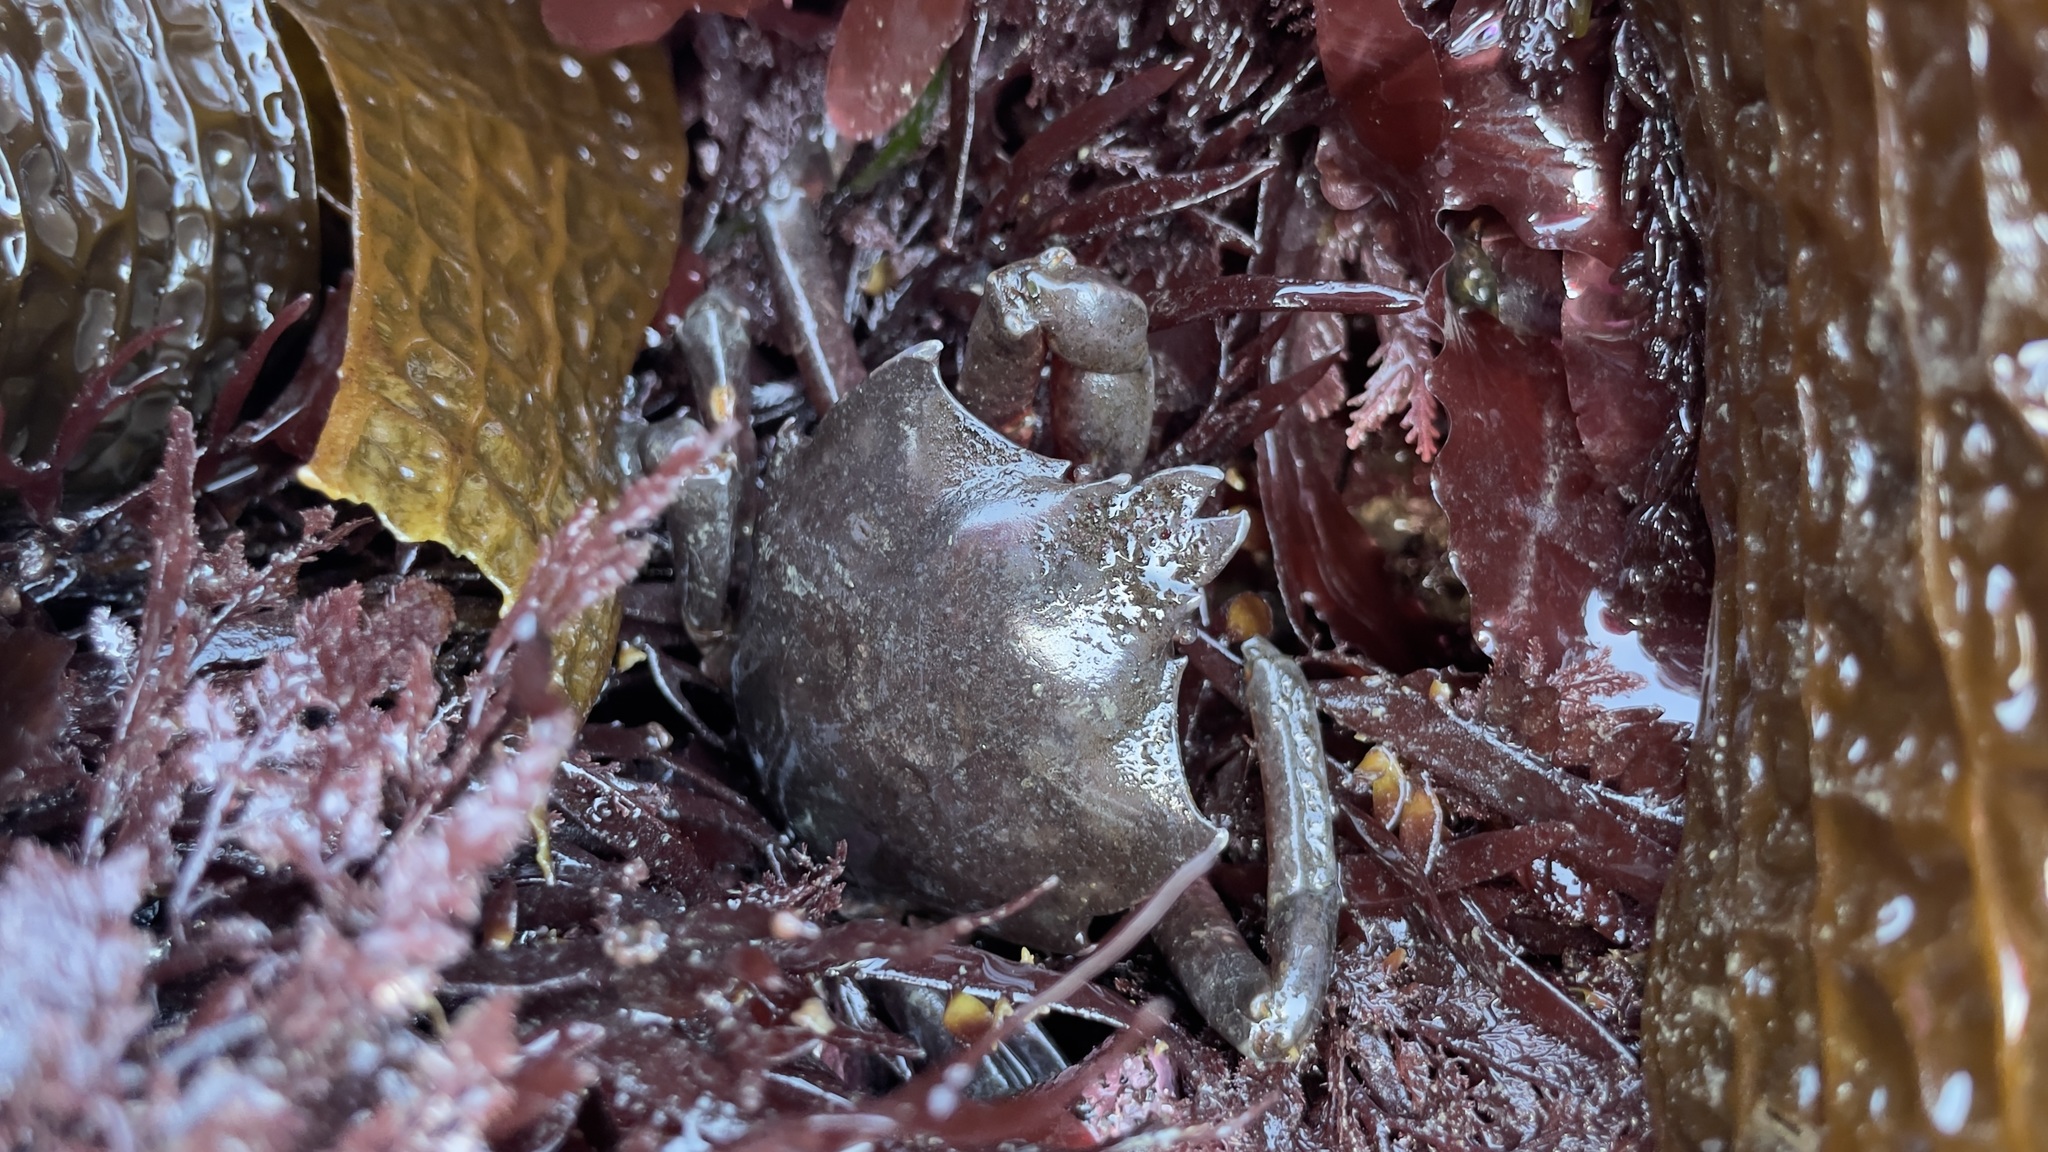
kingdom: Animalia
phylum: Arthropoda
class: Malacostraca
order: Decapoda
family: Epialtidae
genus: Pugettia
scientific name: Pugettia producta
